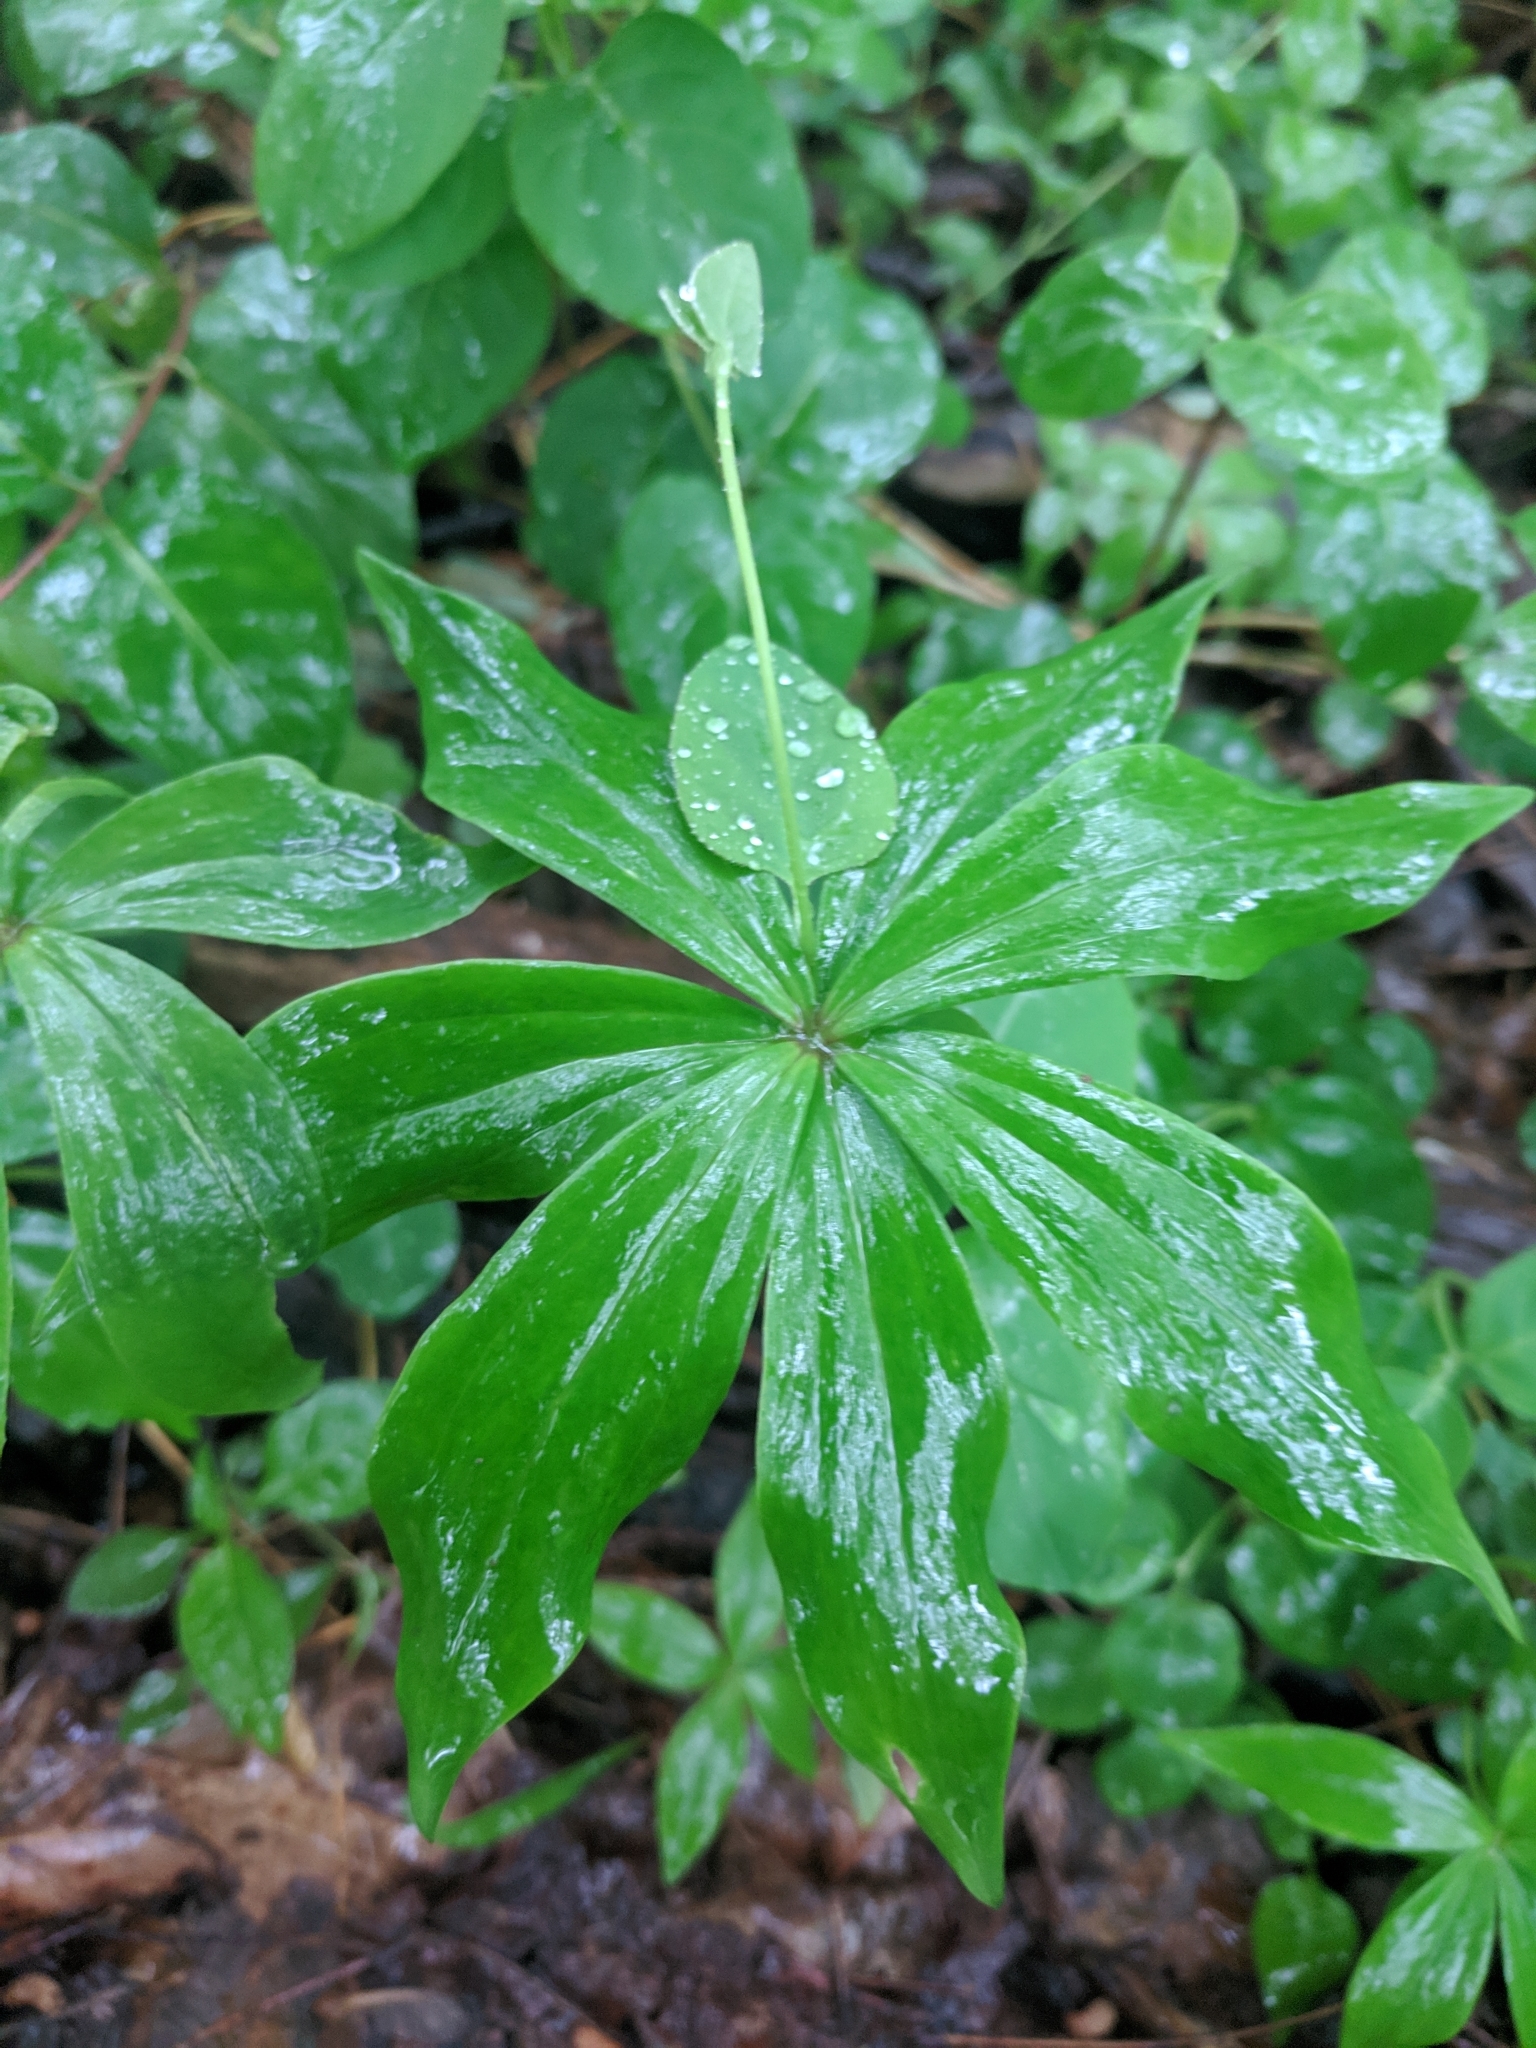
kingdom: Plantae
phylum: Tracheophyta
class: Liliopsida
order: Liliales
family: Liliaceae
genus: Medeola
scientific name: Medeola virginiana
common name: Indian cucumber-root
